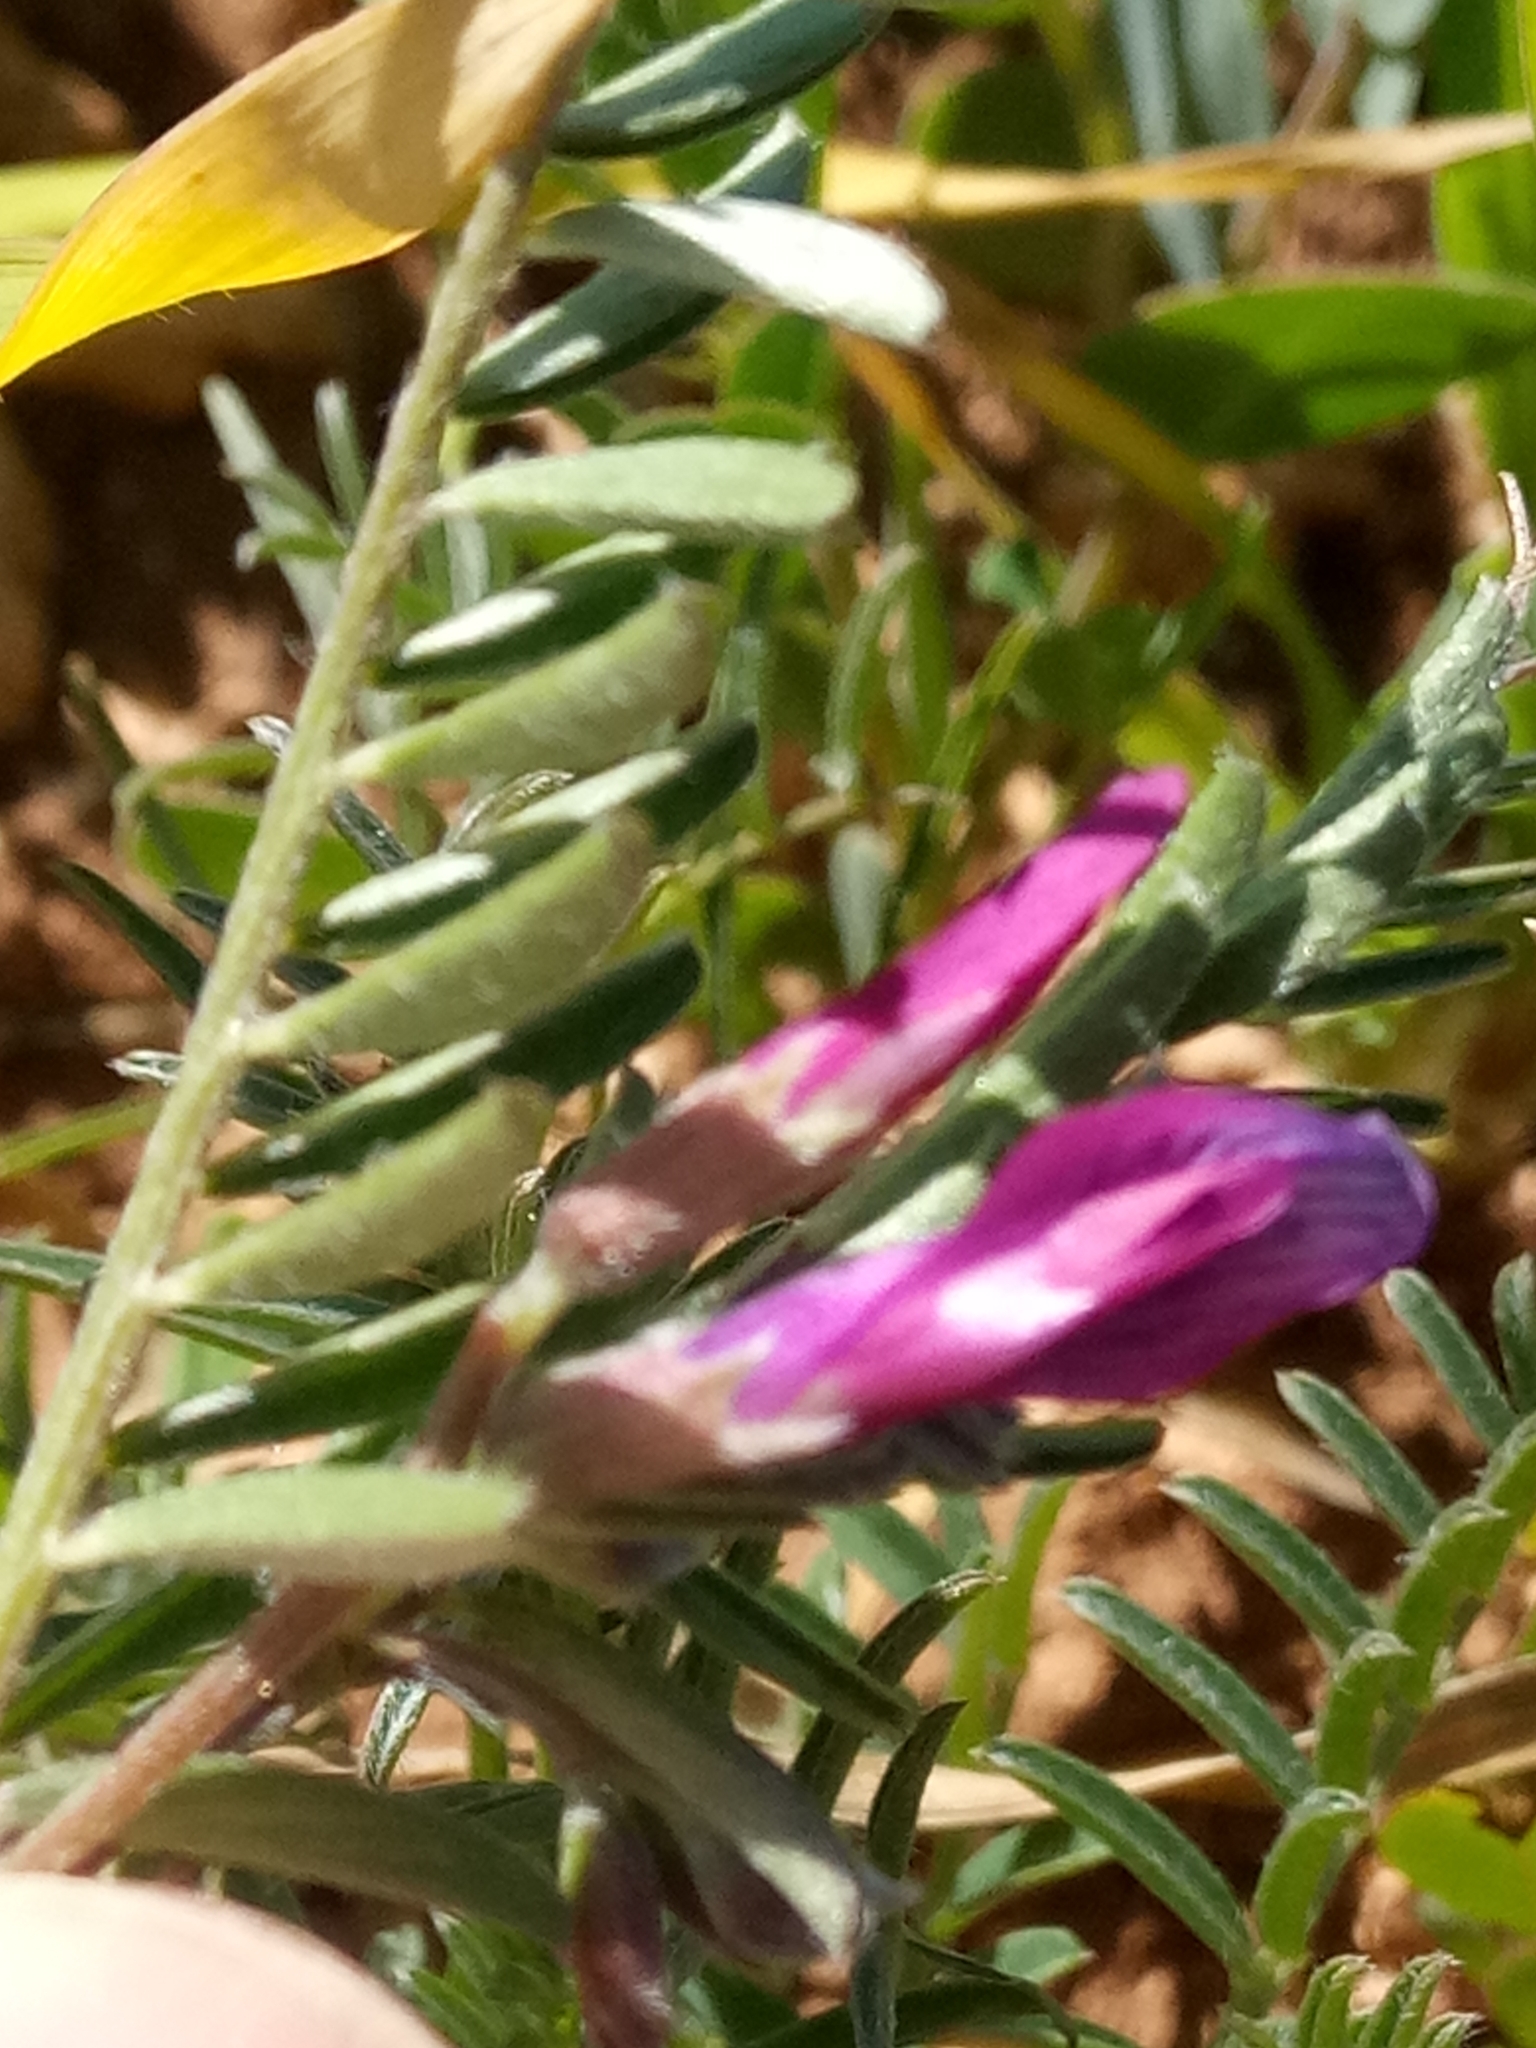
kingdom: Plantae
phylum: Tracheophyta
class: Magnoliopsida
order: Fabales
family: Fabaceae
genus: Vicia
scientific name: Vicia monantha
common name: Barn vetch
